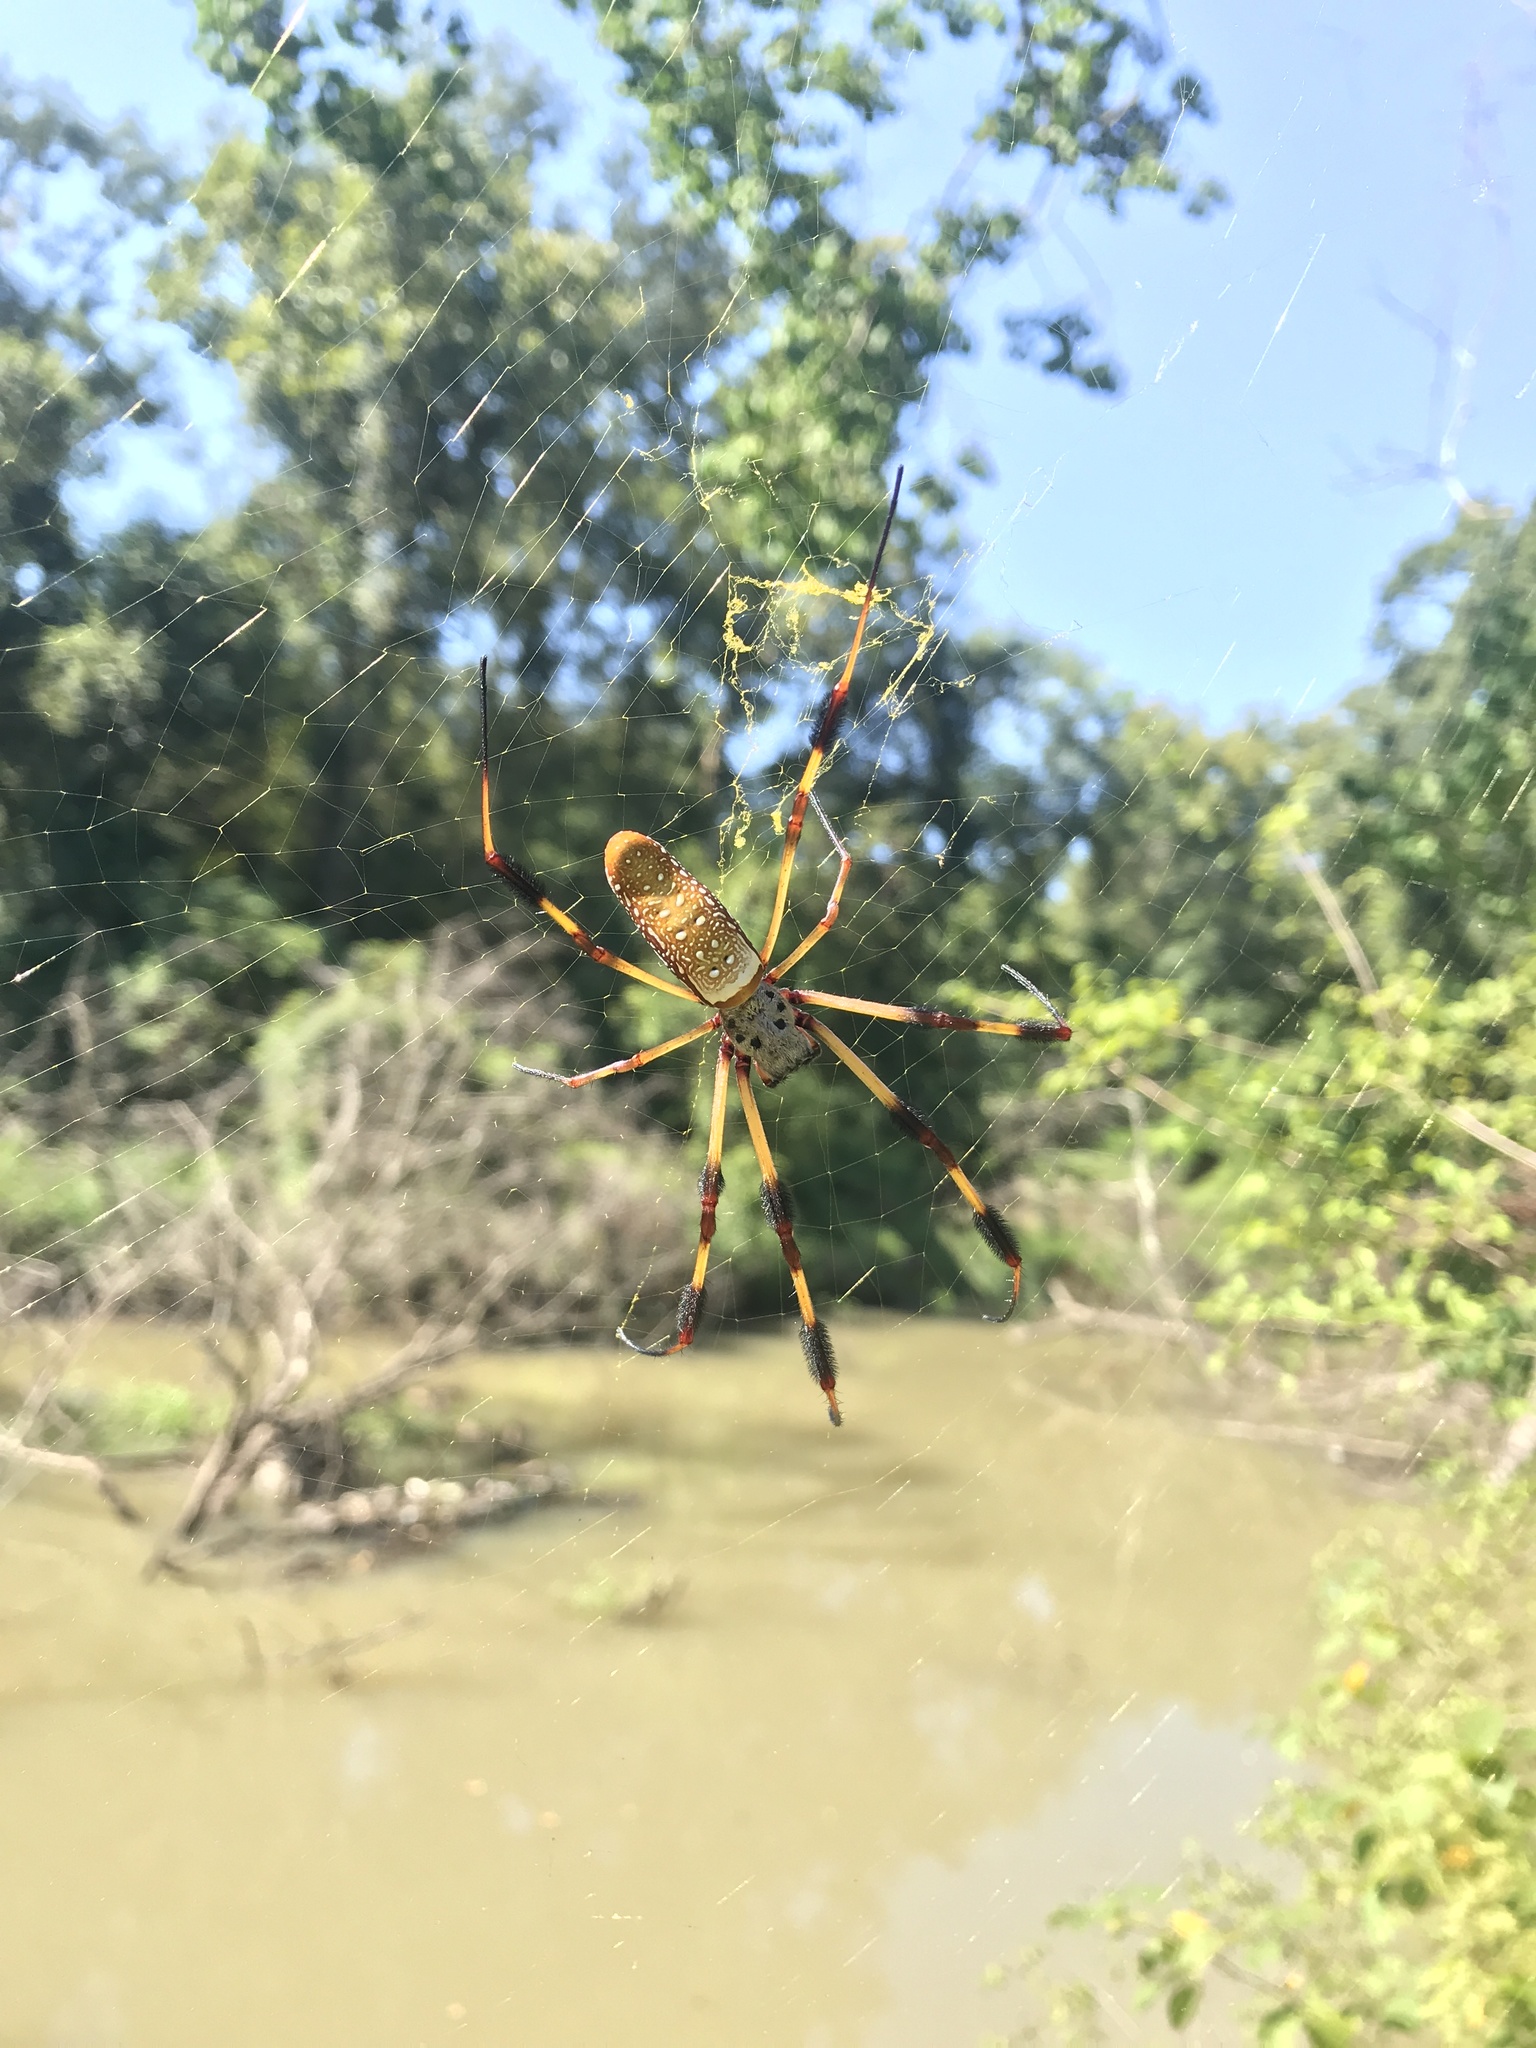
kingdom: Animalia
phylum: Arthropoda
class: Arachnida
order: Araneae
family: Araneidae
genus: Trichonephila
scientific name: Trichonephila clavipes
